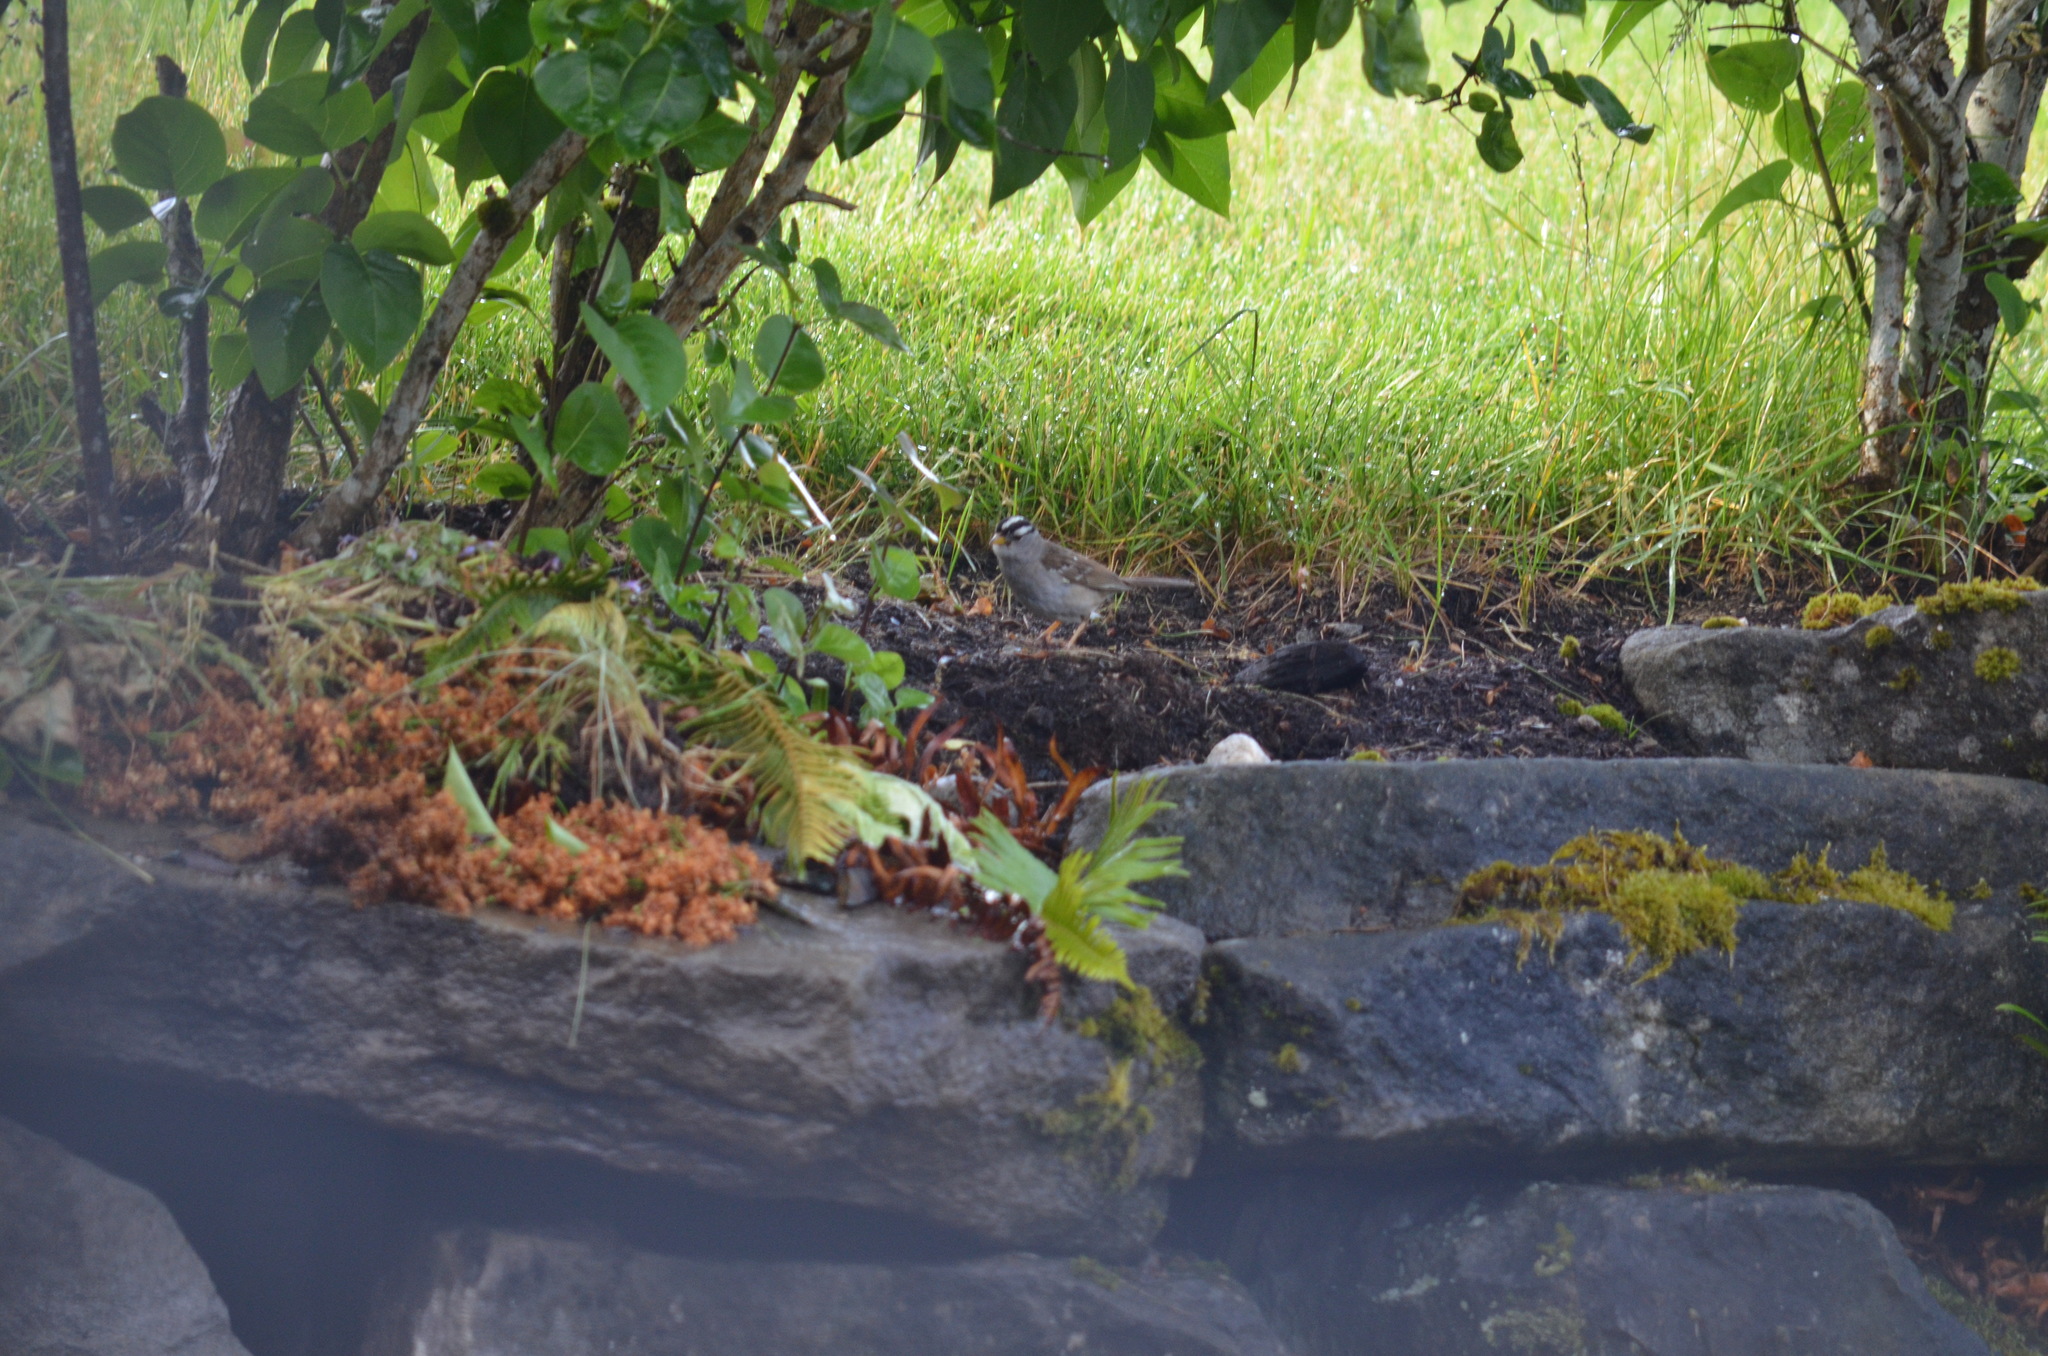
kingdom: Animalia
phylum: Chordata
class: Aves
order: Passeriformes
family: Passerellidae
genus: Zonotrichia
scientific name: Zonotrichia leucophrys
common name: White-crowned sparrow
